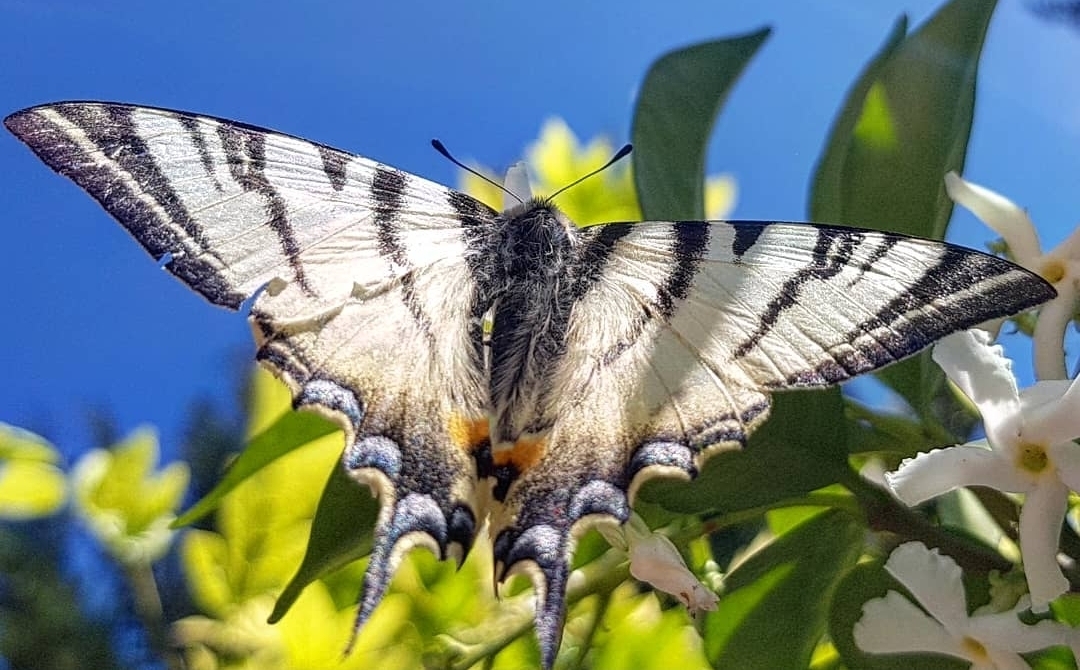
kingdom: Animalia
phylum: Arthropoda
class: Insecta
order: Lepidoptera
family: Papilionidae
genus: Iphiclides
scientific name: Iphiclides podalirius
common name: Scarce swallowtail
